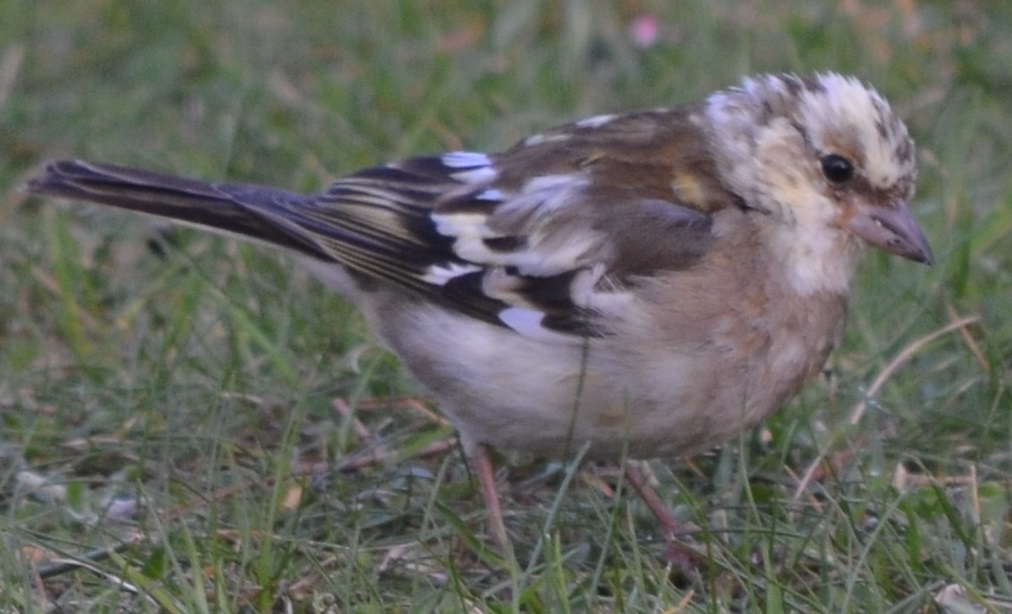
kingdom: Animalia
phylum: Chordata
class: Aves
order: Passeriformes
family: Fringillidae
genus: Fringilla
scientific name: Fringilla coelebs
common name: Common chaffinch
